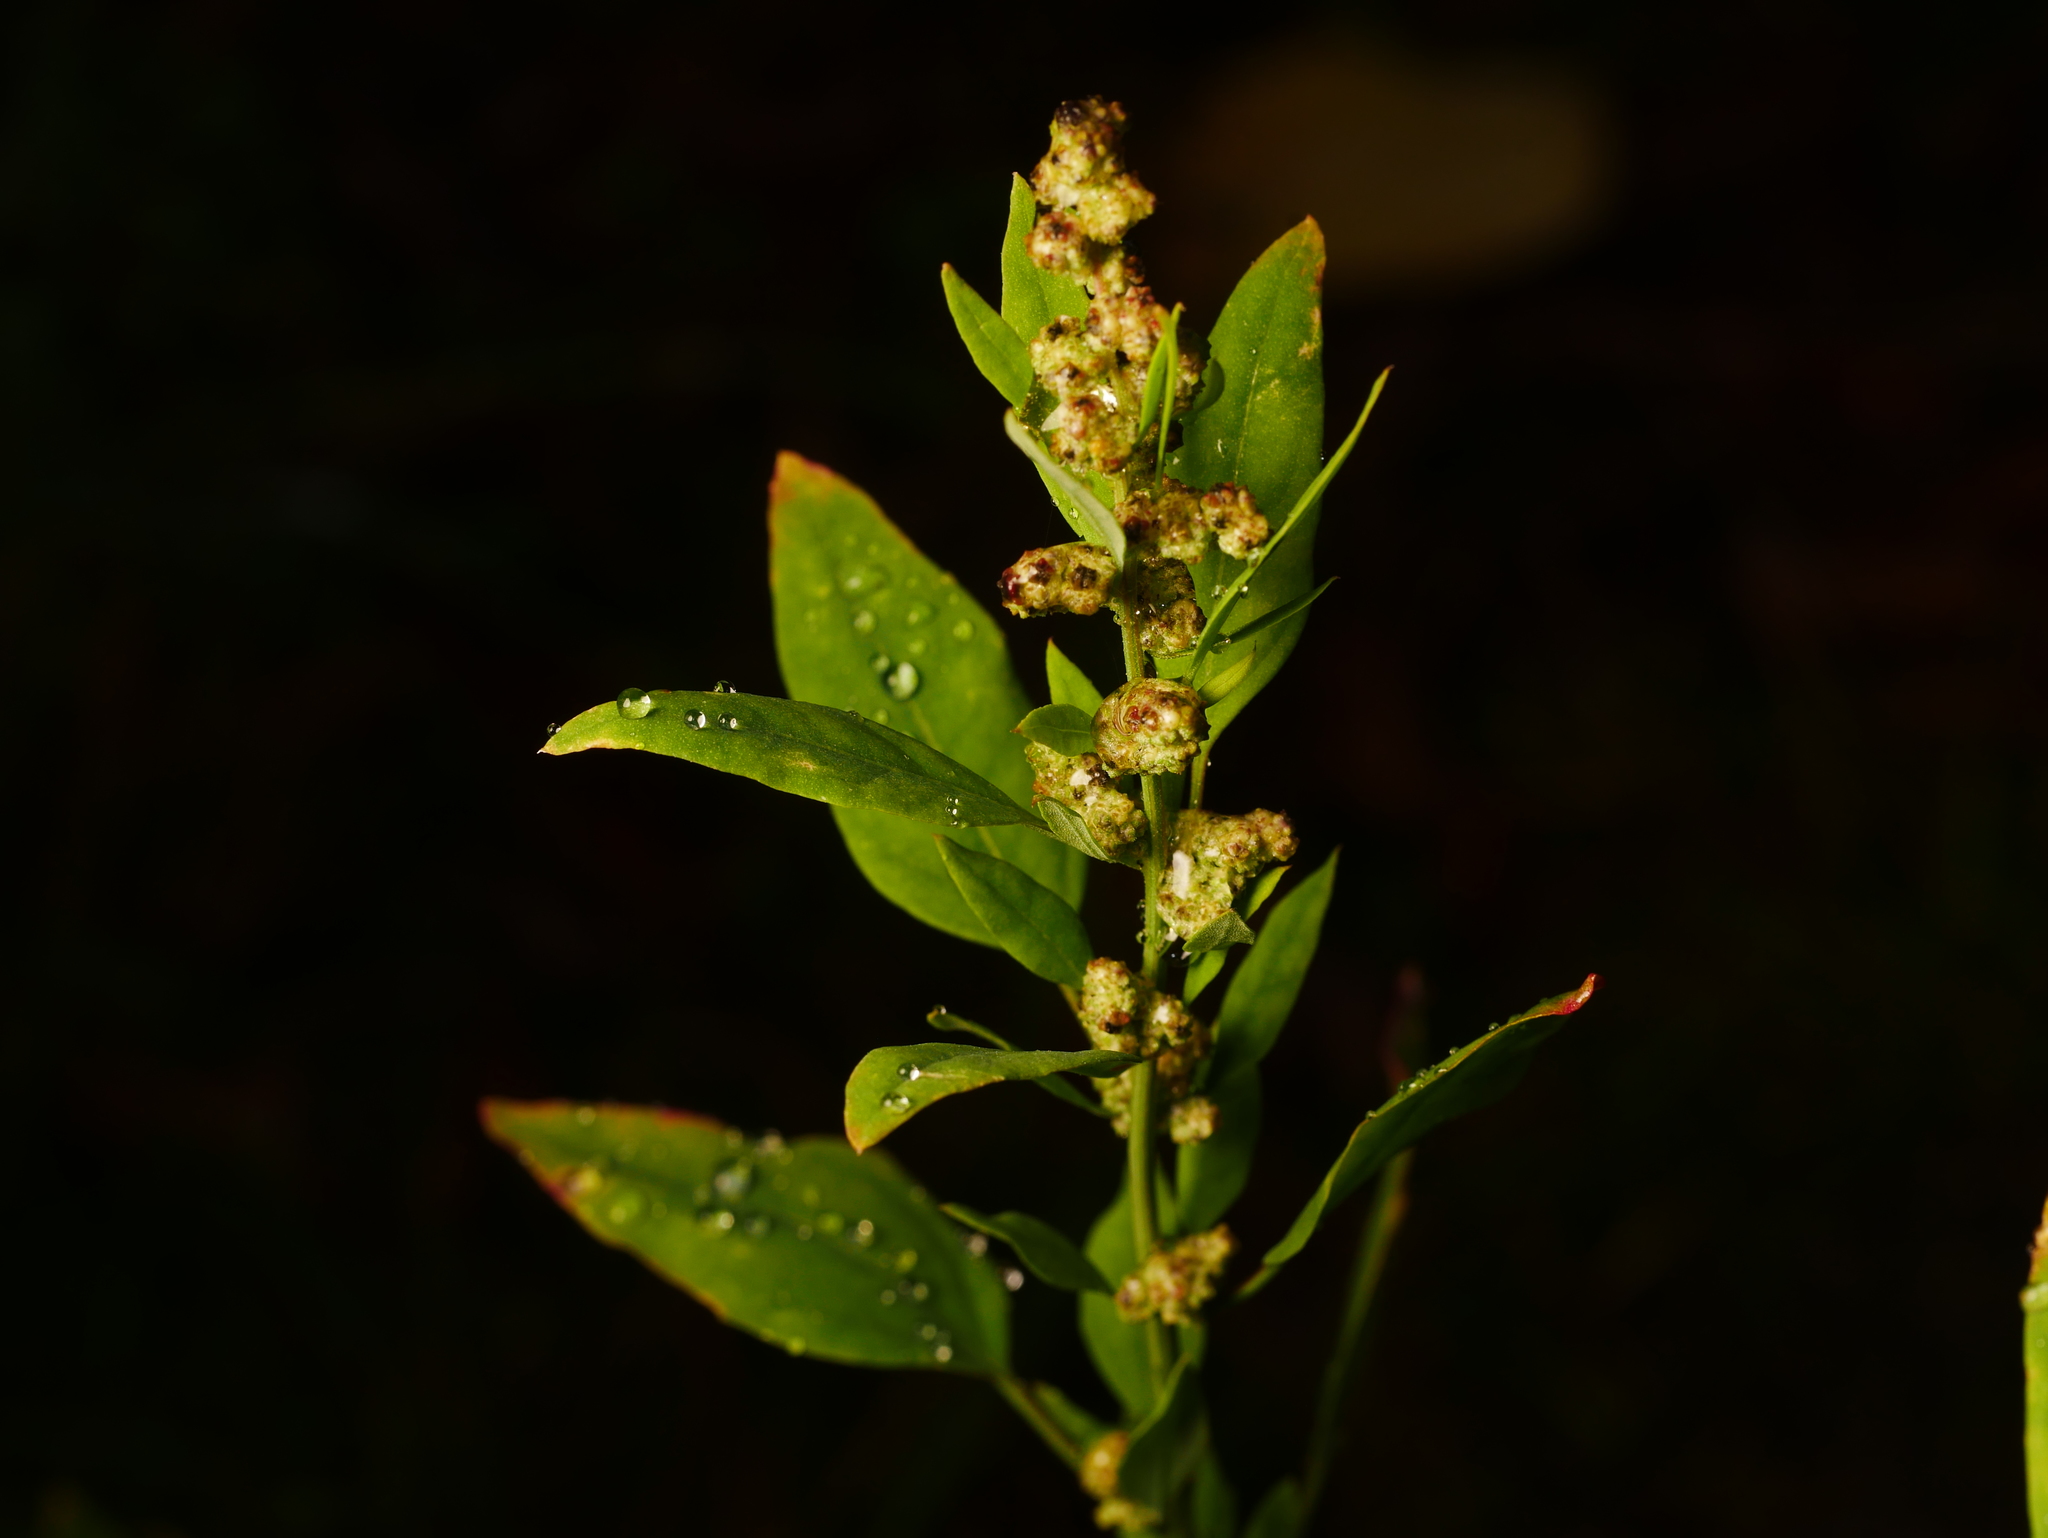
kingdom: Plantae
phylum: Tracheophyta
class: Magnoliopsida
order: Caryophyllales
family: Amaranthaceae
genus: Chenopodium
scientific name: Chenopodium album
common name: Fat-hen
